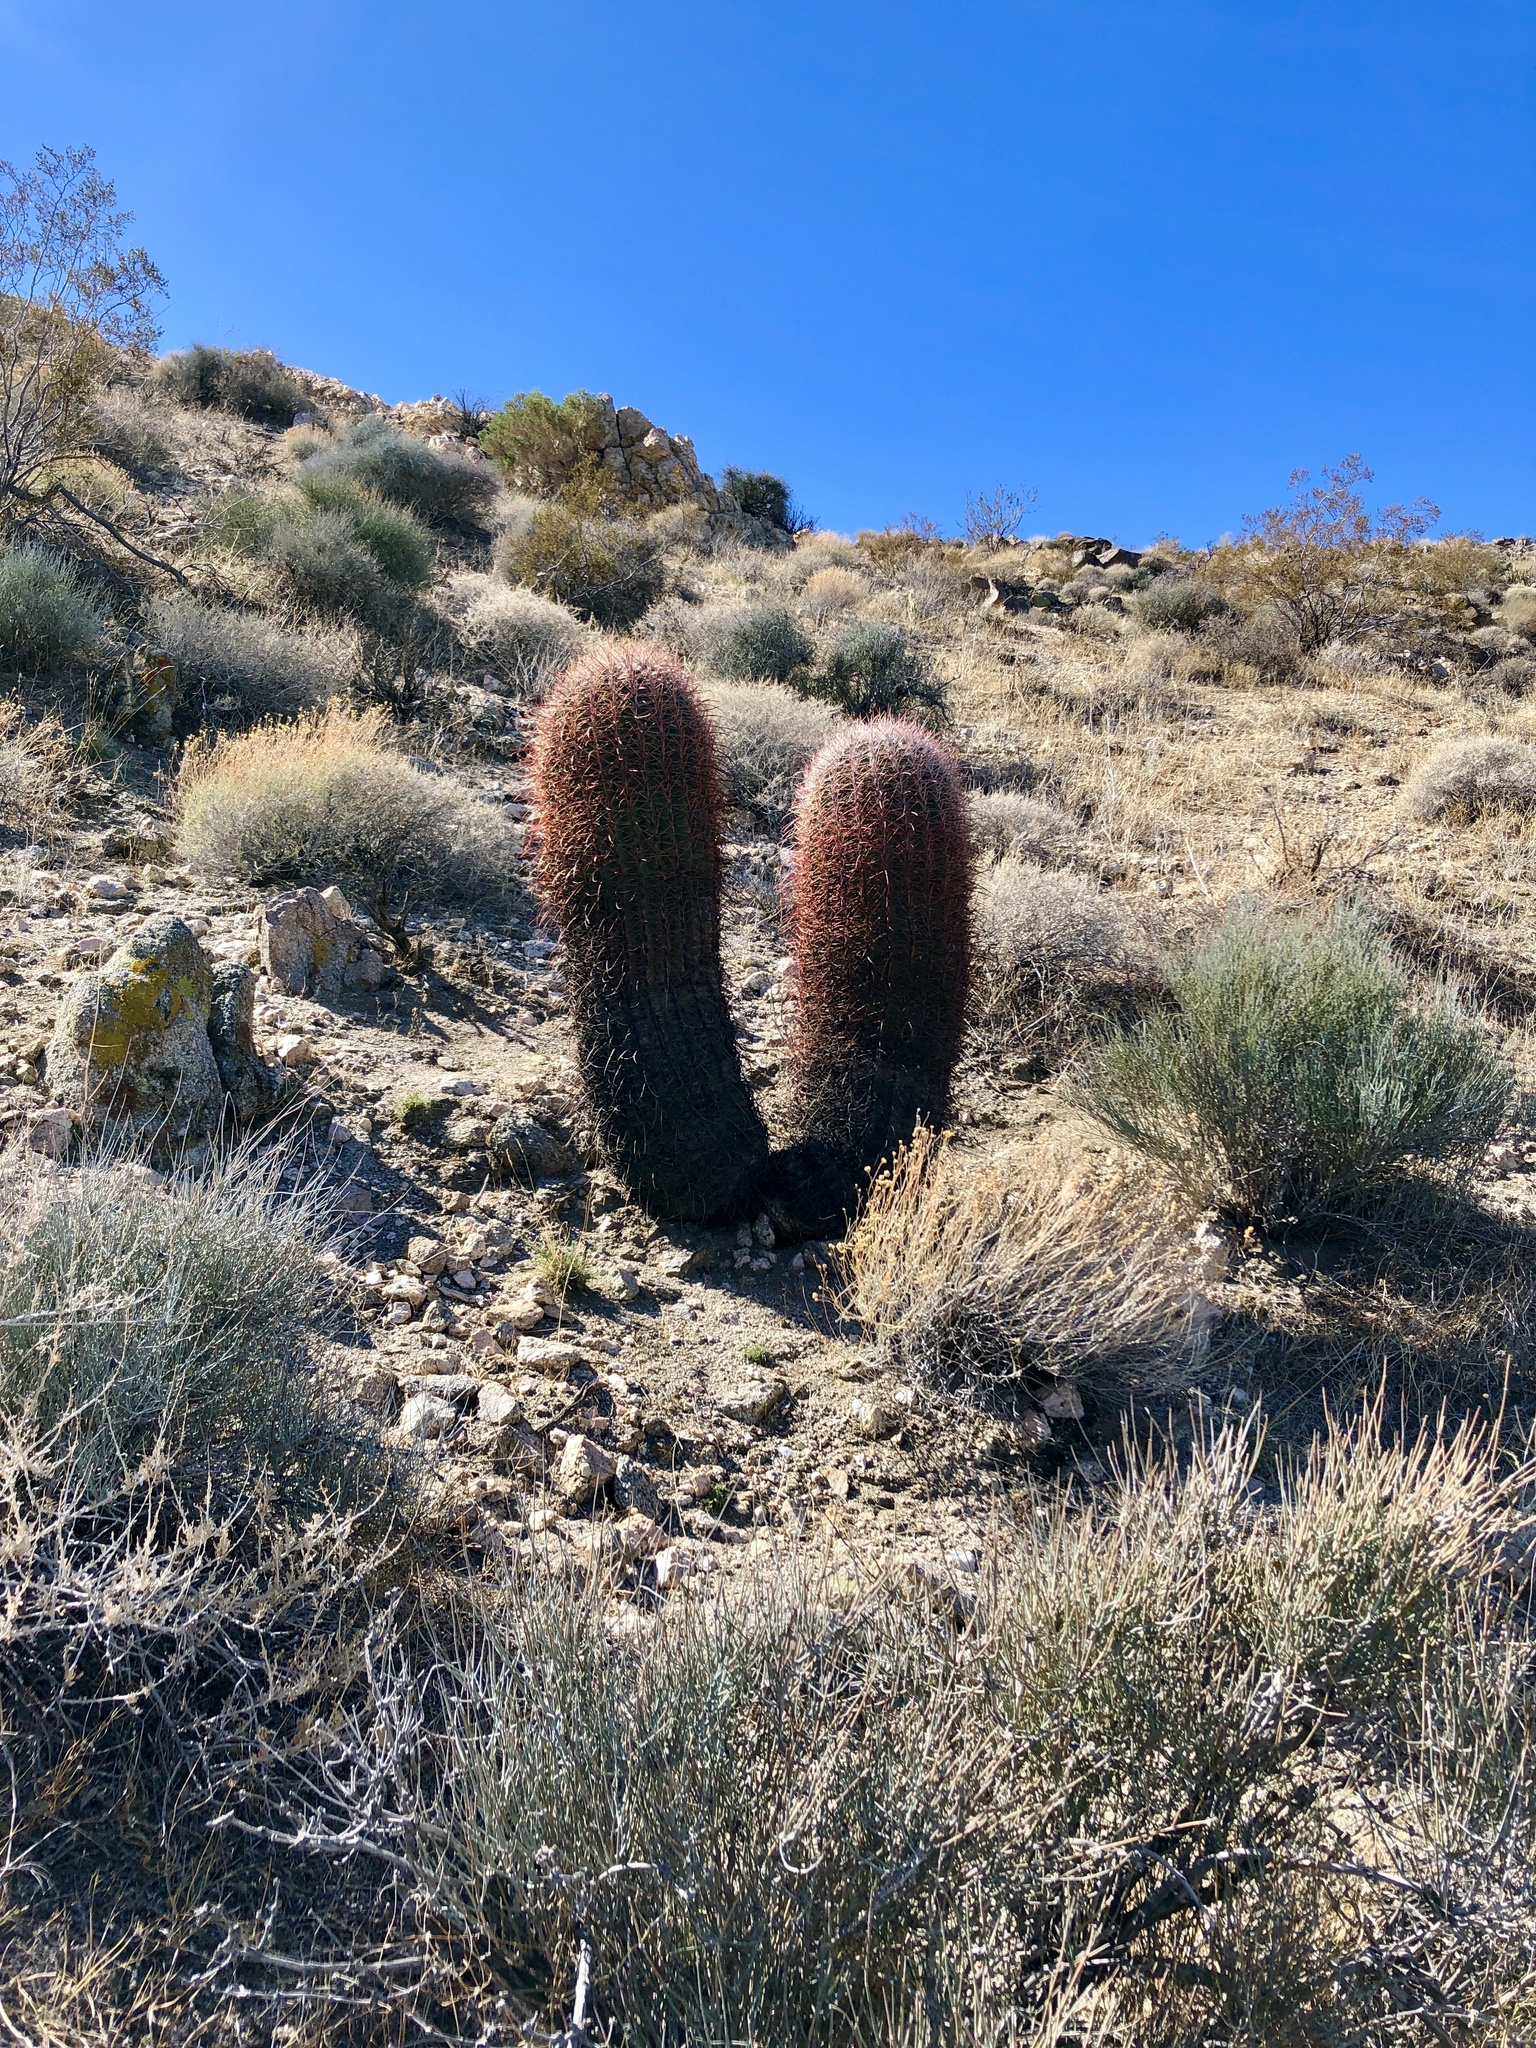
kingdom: Plantae
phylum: Tracheophyta
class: Magnoliopsida
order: Caryophyllales
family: Cactaceae
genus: Ferocactus
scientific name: Ferocactus cylindraceus
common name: California barrel cactus
